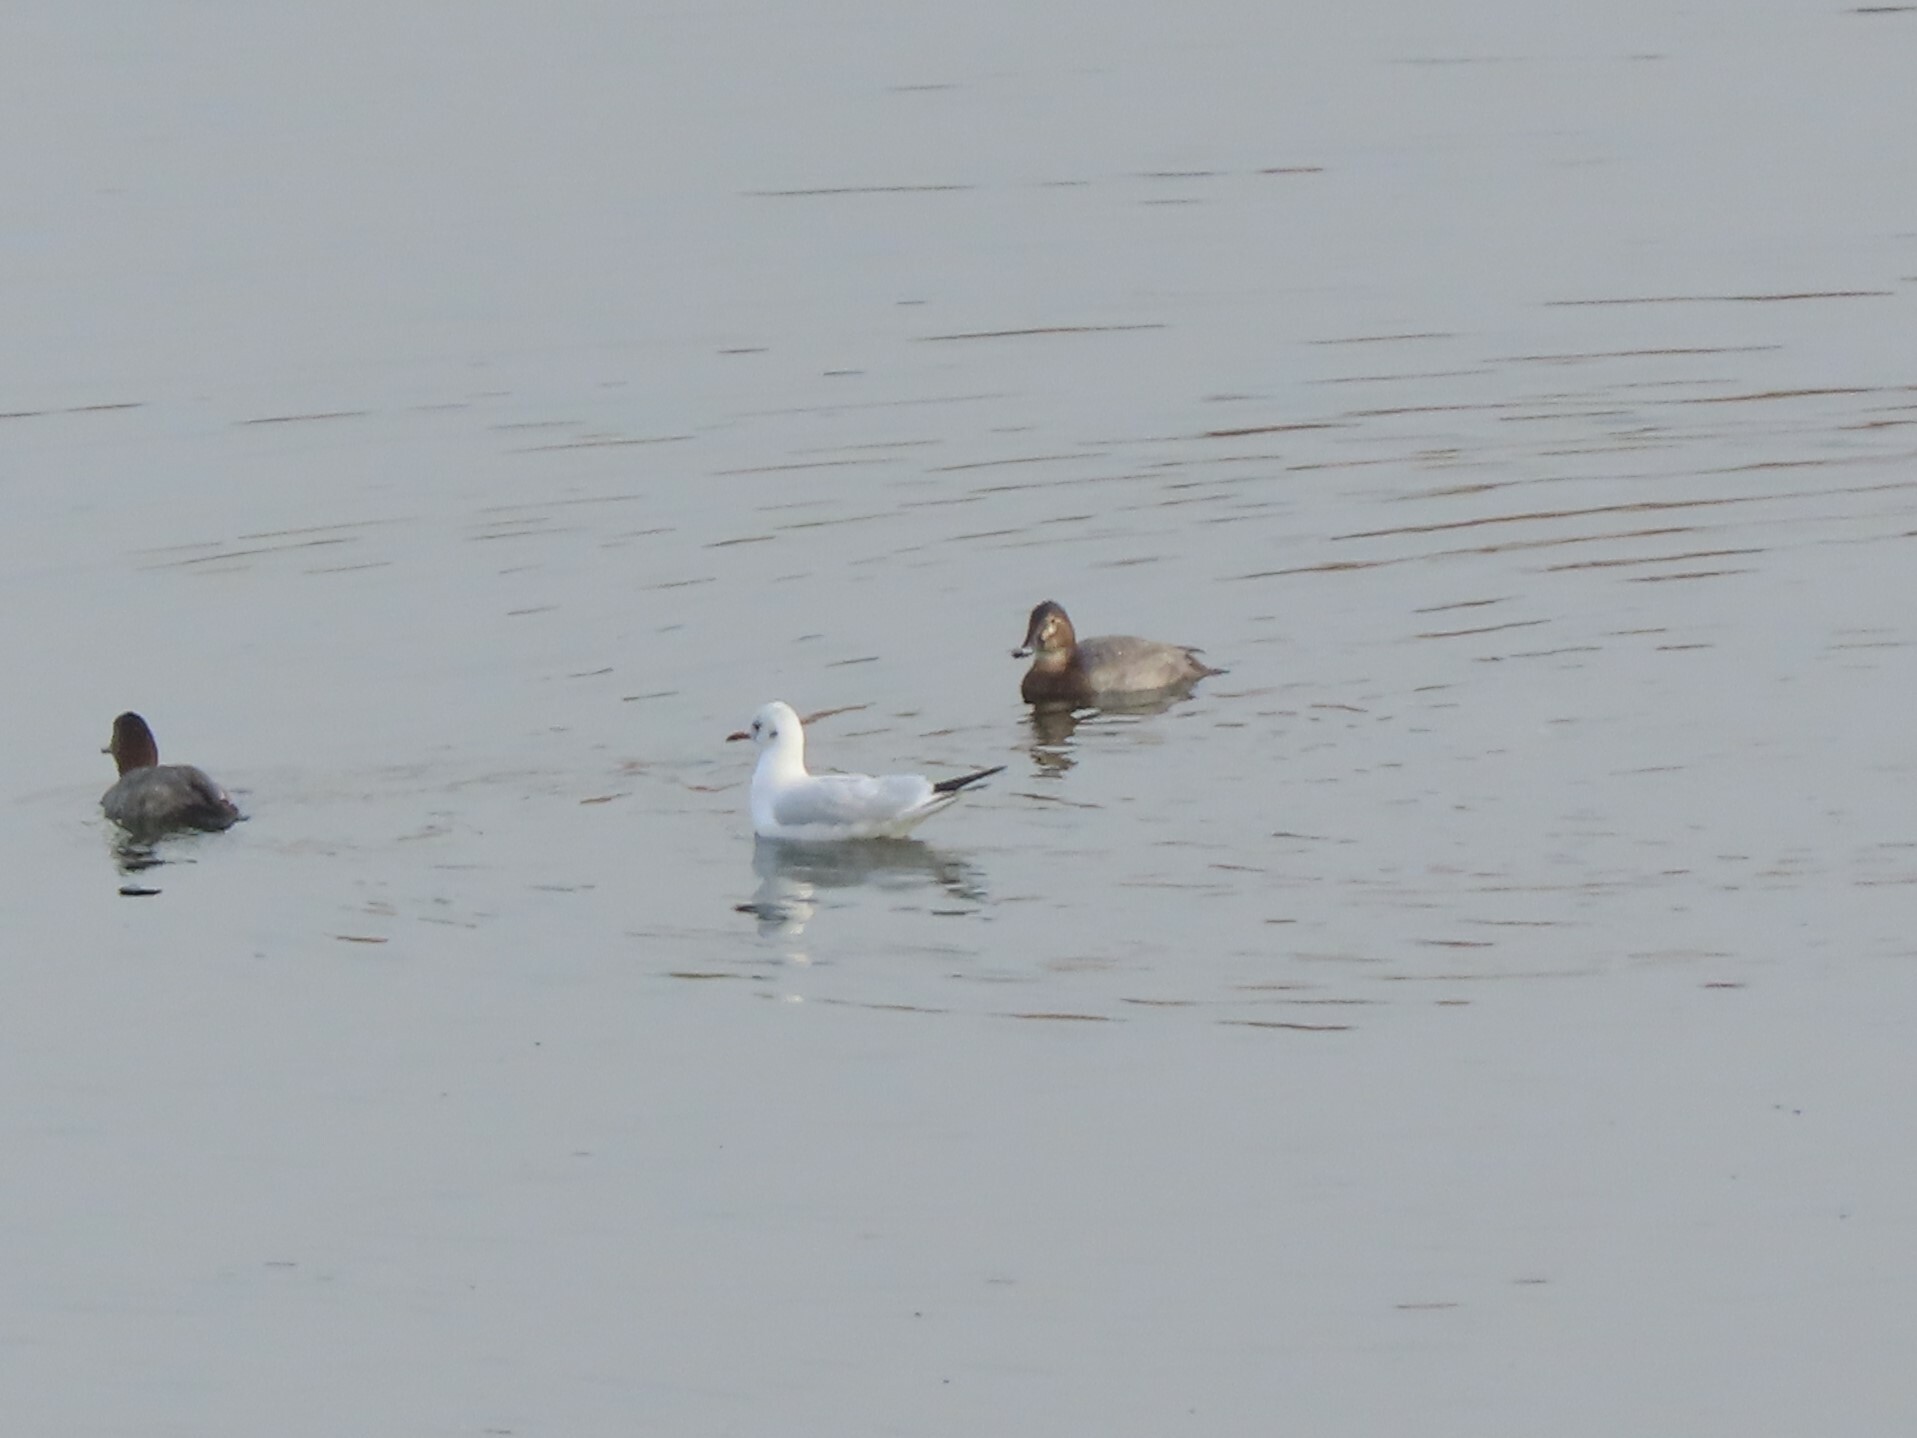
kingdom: Animalia
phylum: Chordata
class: Aves
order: Anseriformes
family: Anatidae
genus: Aythya
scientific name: Aythya ferina
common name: Common pochard
